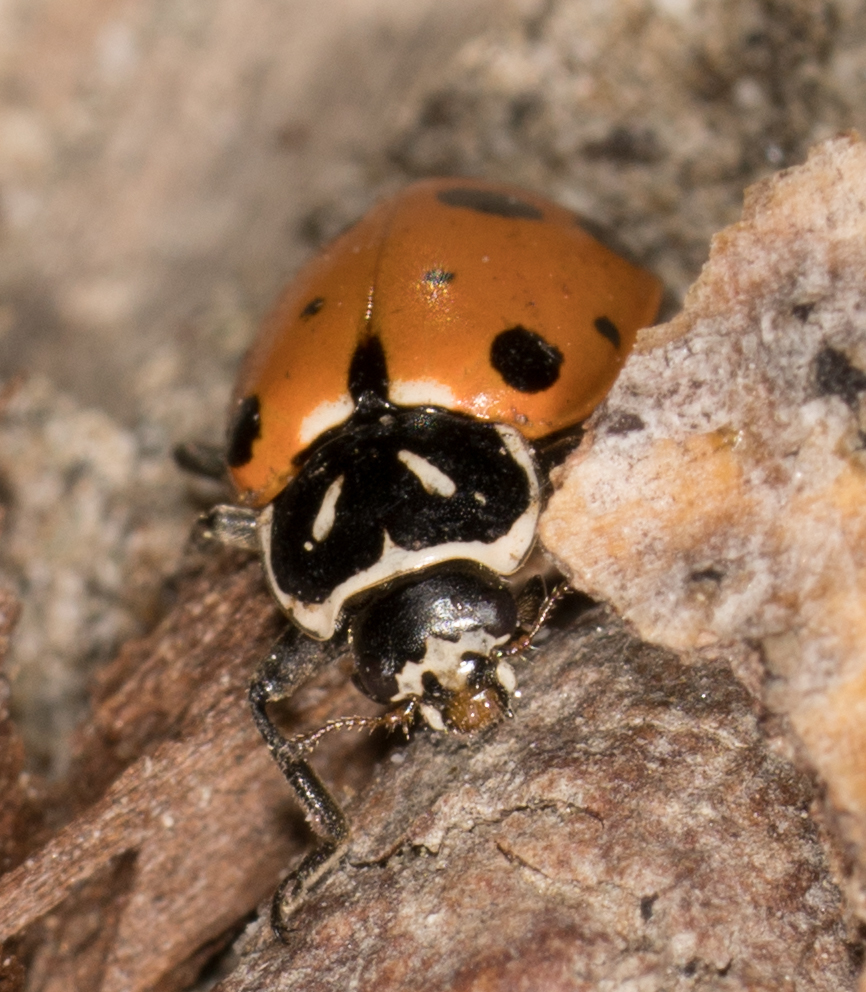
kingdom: Animalia
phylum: Arthropoda
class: Insecta
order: Coleoptera
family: Coccinellidae
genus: Hippodamia
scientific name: Hippodamia convergens
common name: Convergent lady beetle
